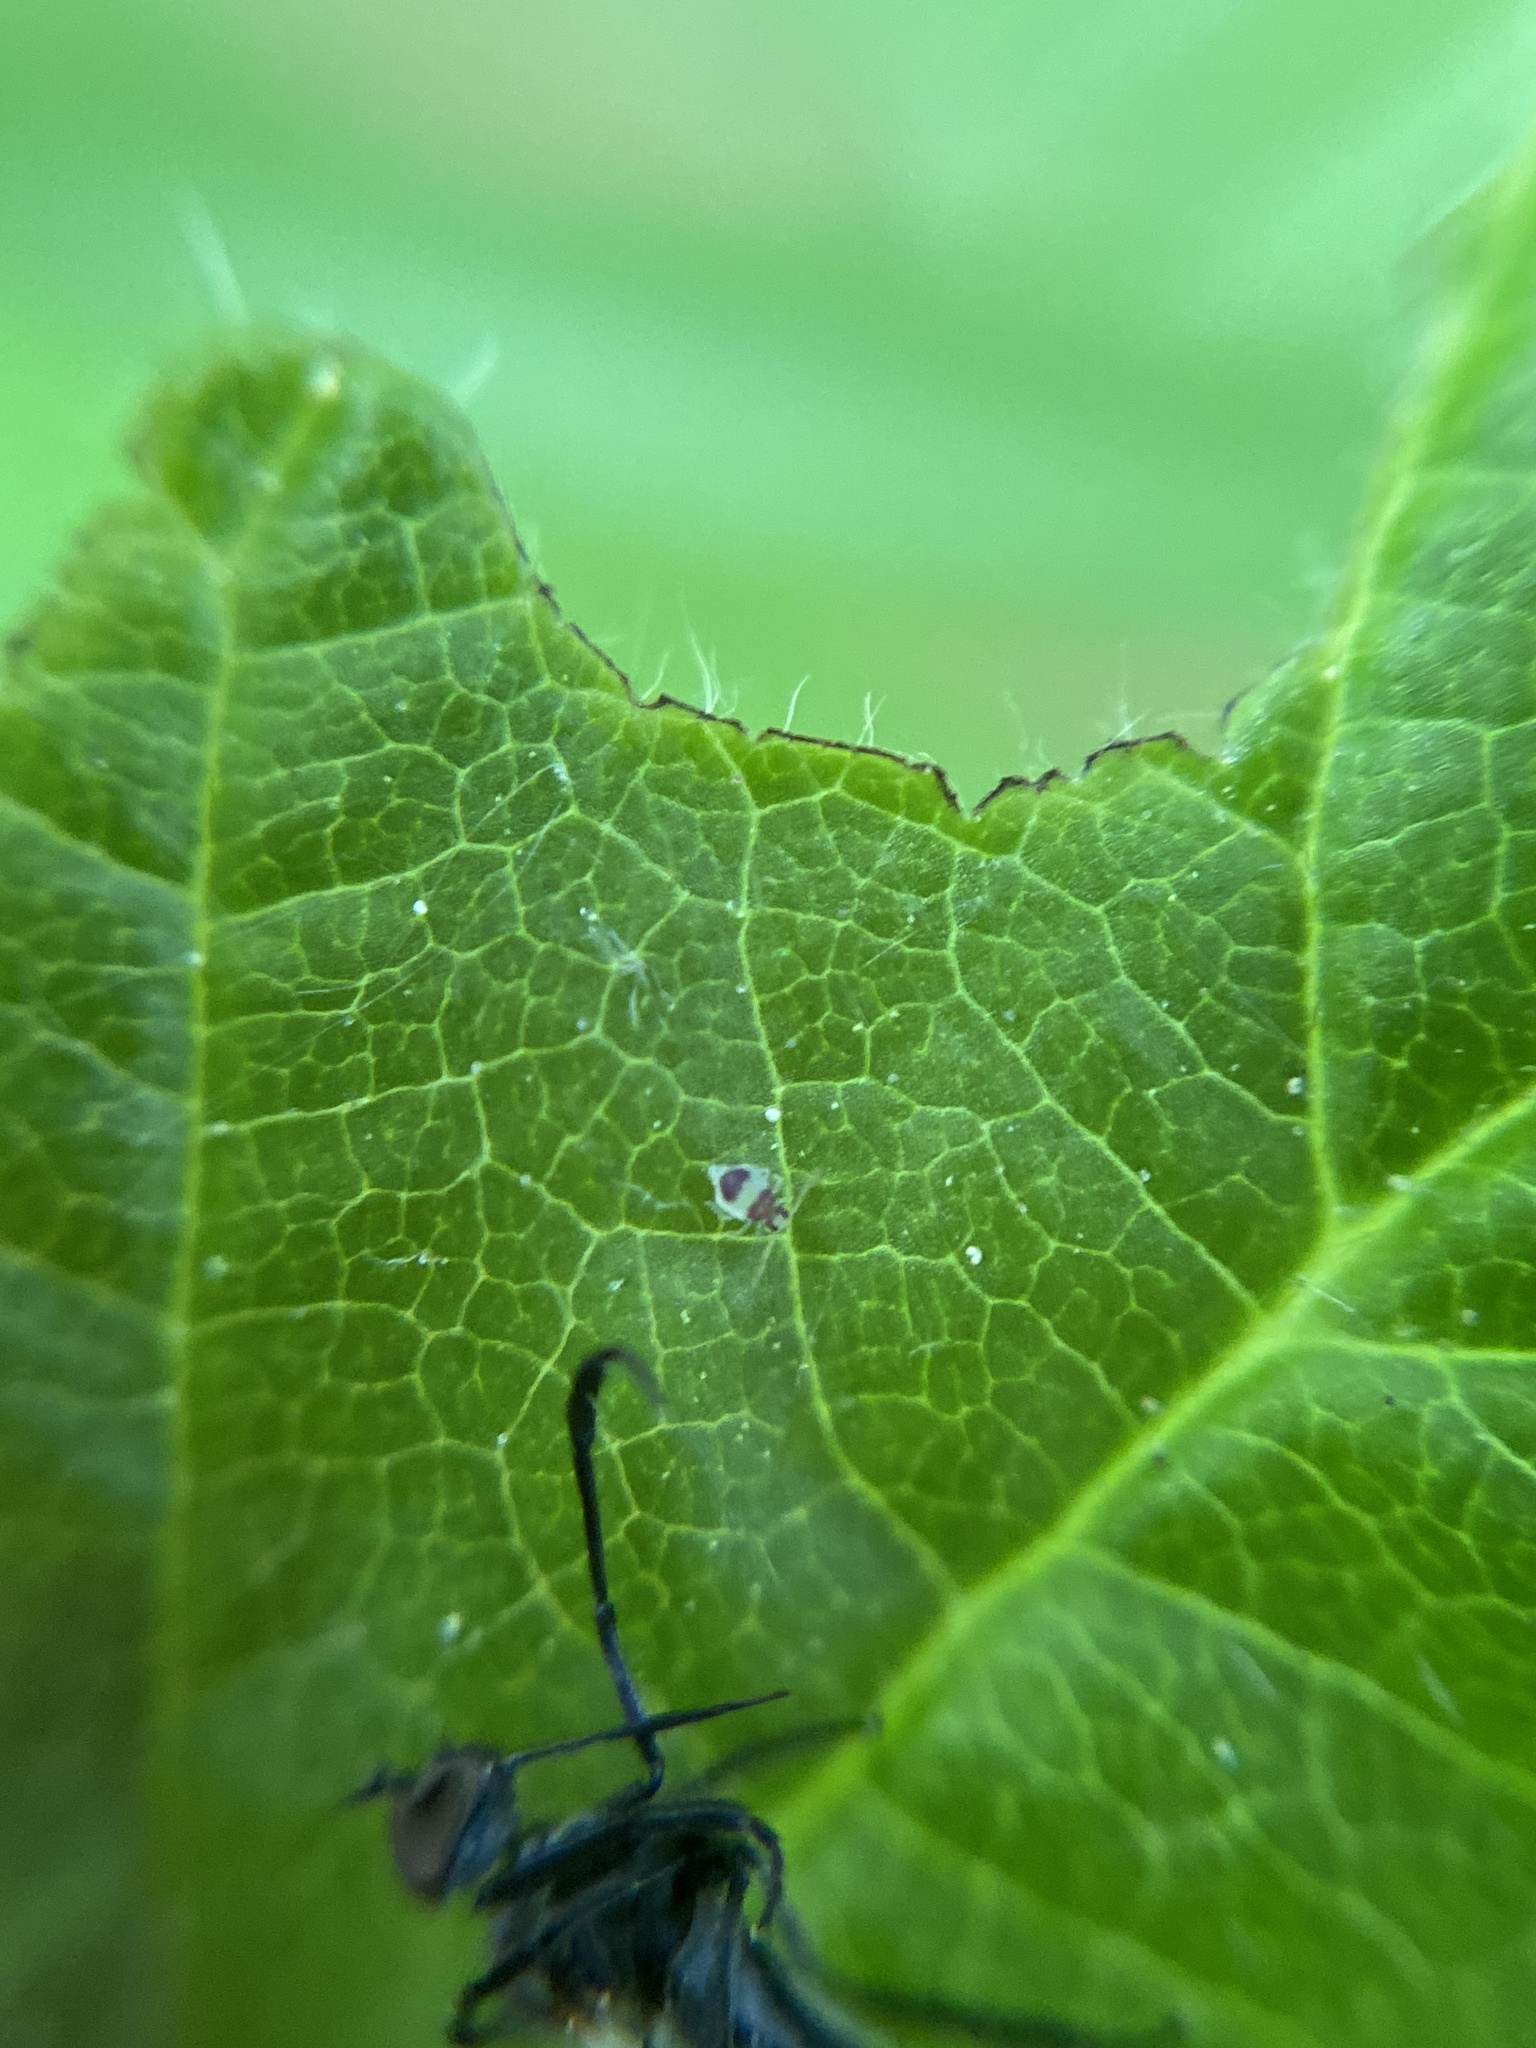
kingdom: Animalia
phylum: Arthropoda
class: Collembola
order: Symphypleona
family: Bourletiellidae
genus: Deuterosminthurus
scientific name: Deuterosminthurus bicinctus
